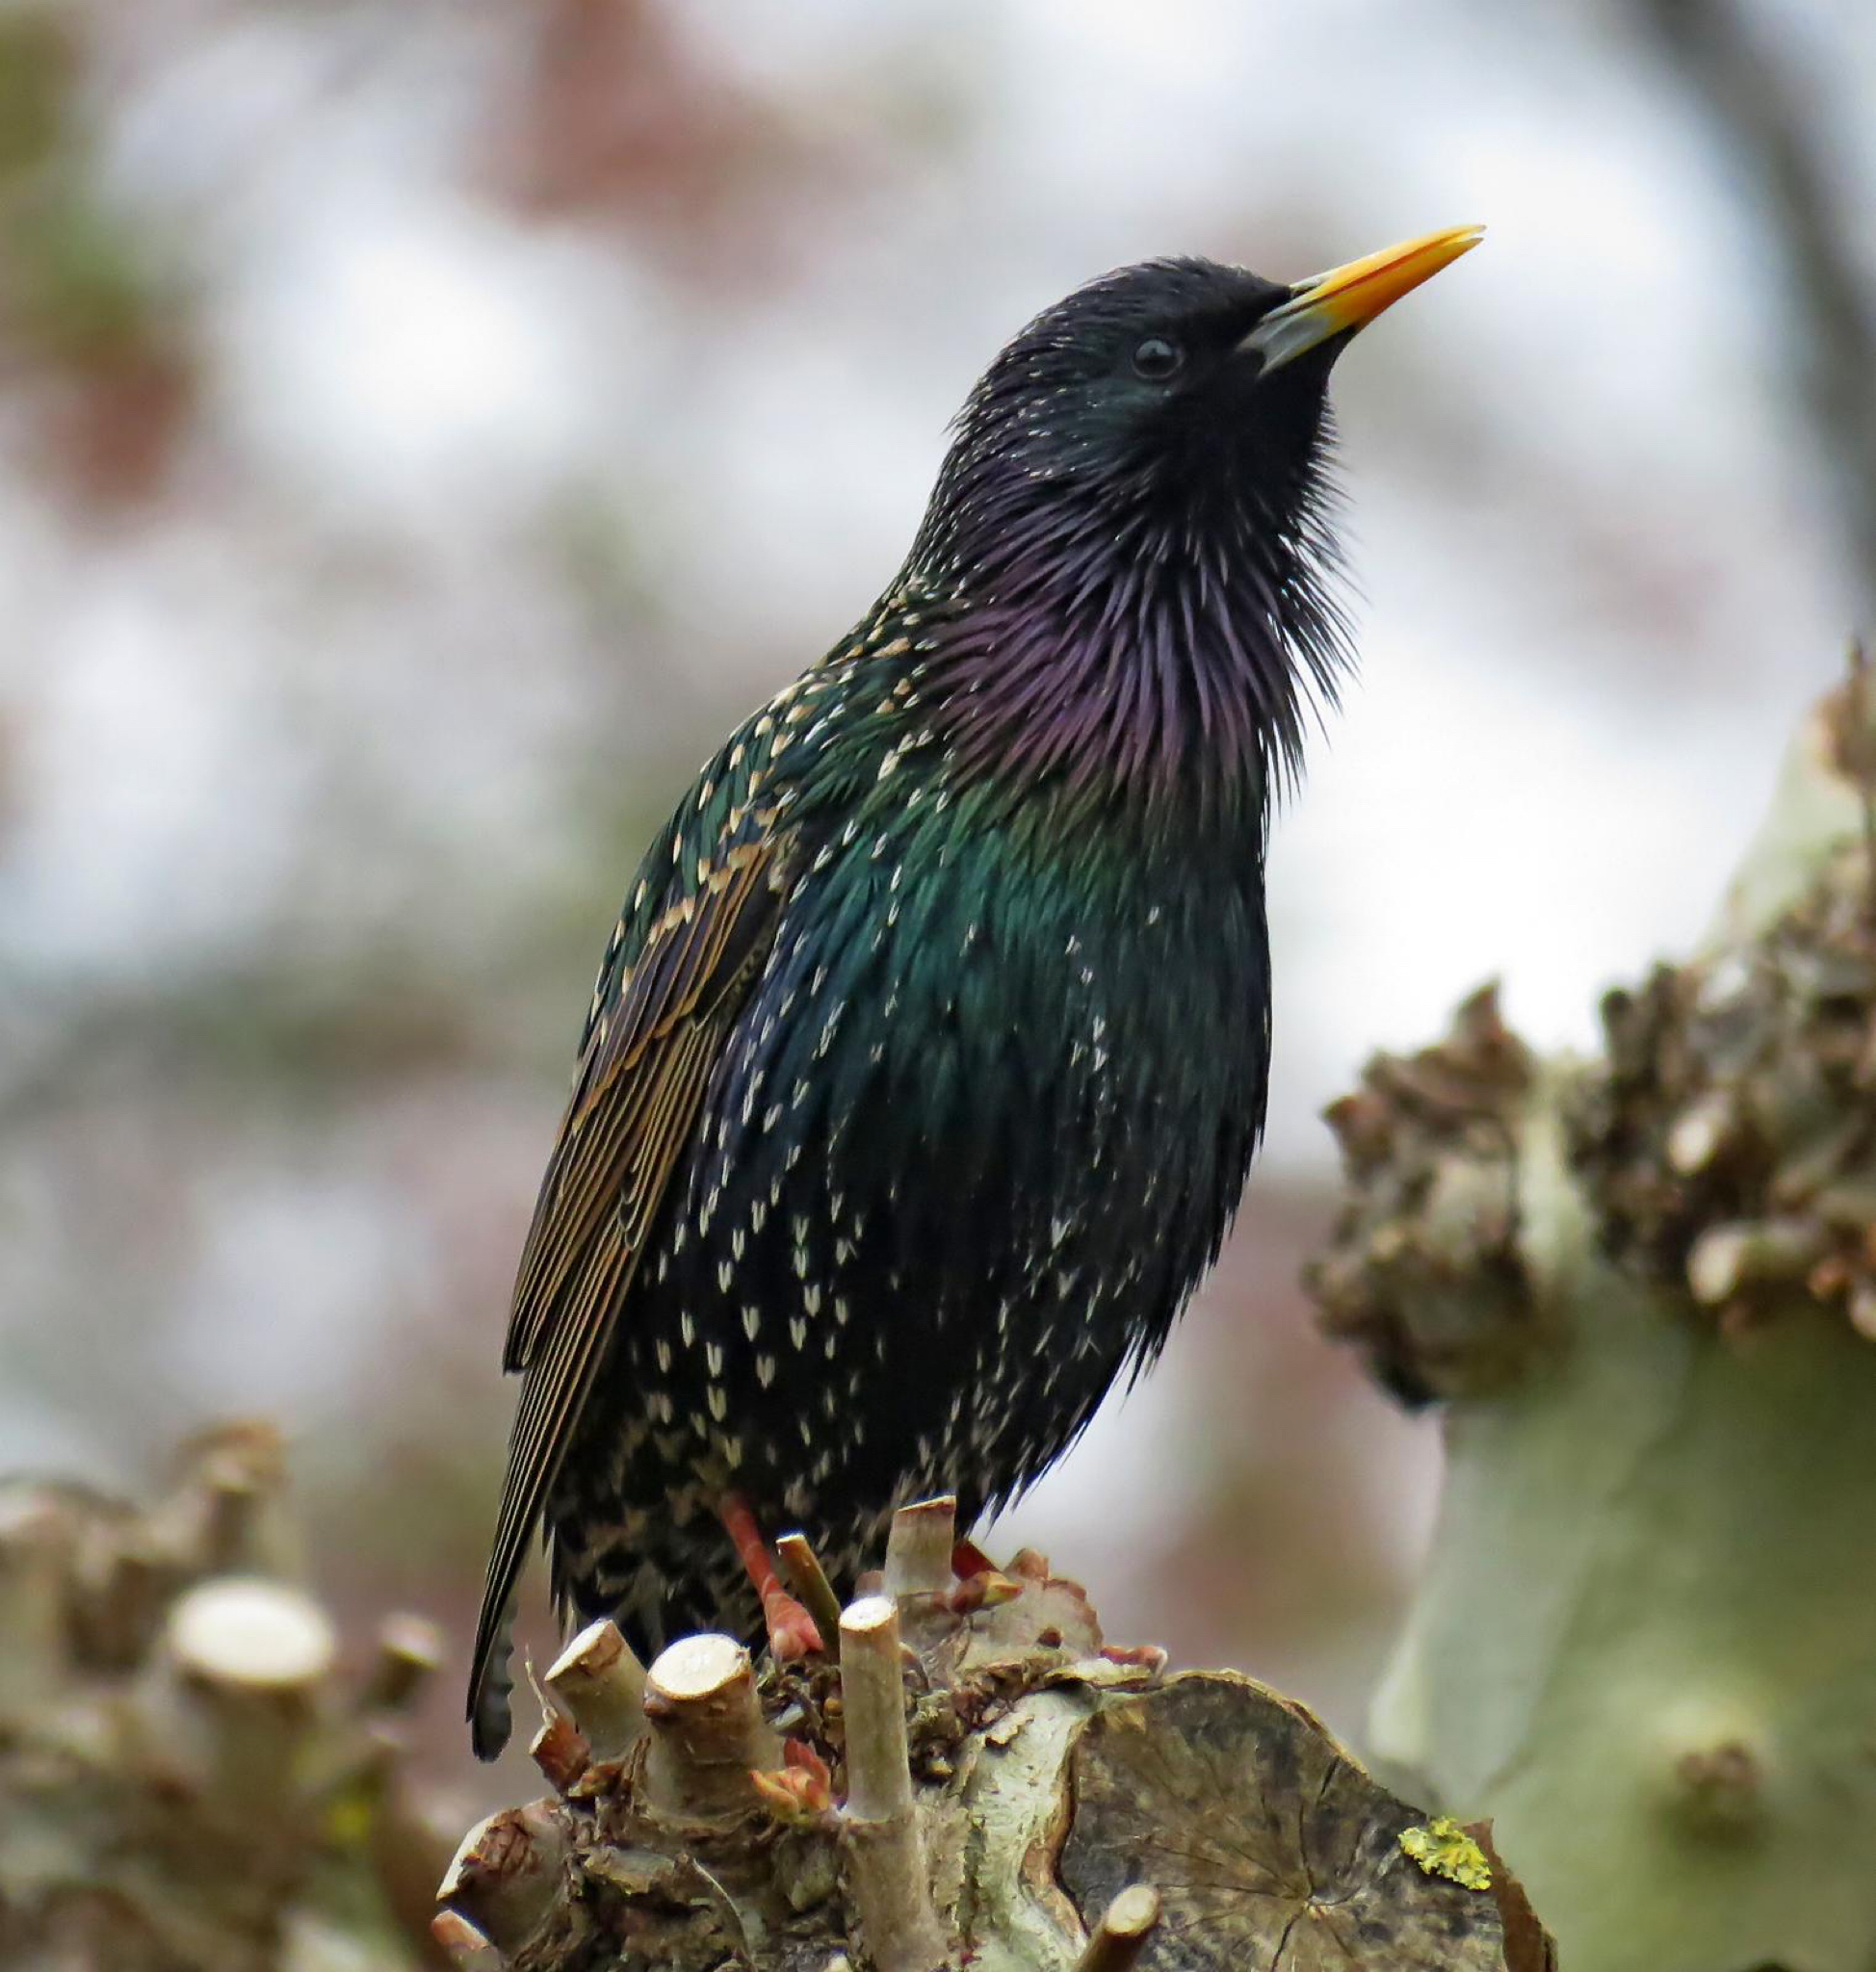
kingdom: Animalia
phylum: Chordata
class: Aves
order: Passeriformes
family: Sturnidae
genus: Sturnus
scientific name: Sturnus vulgaris
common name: Common starling
